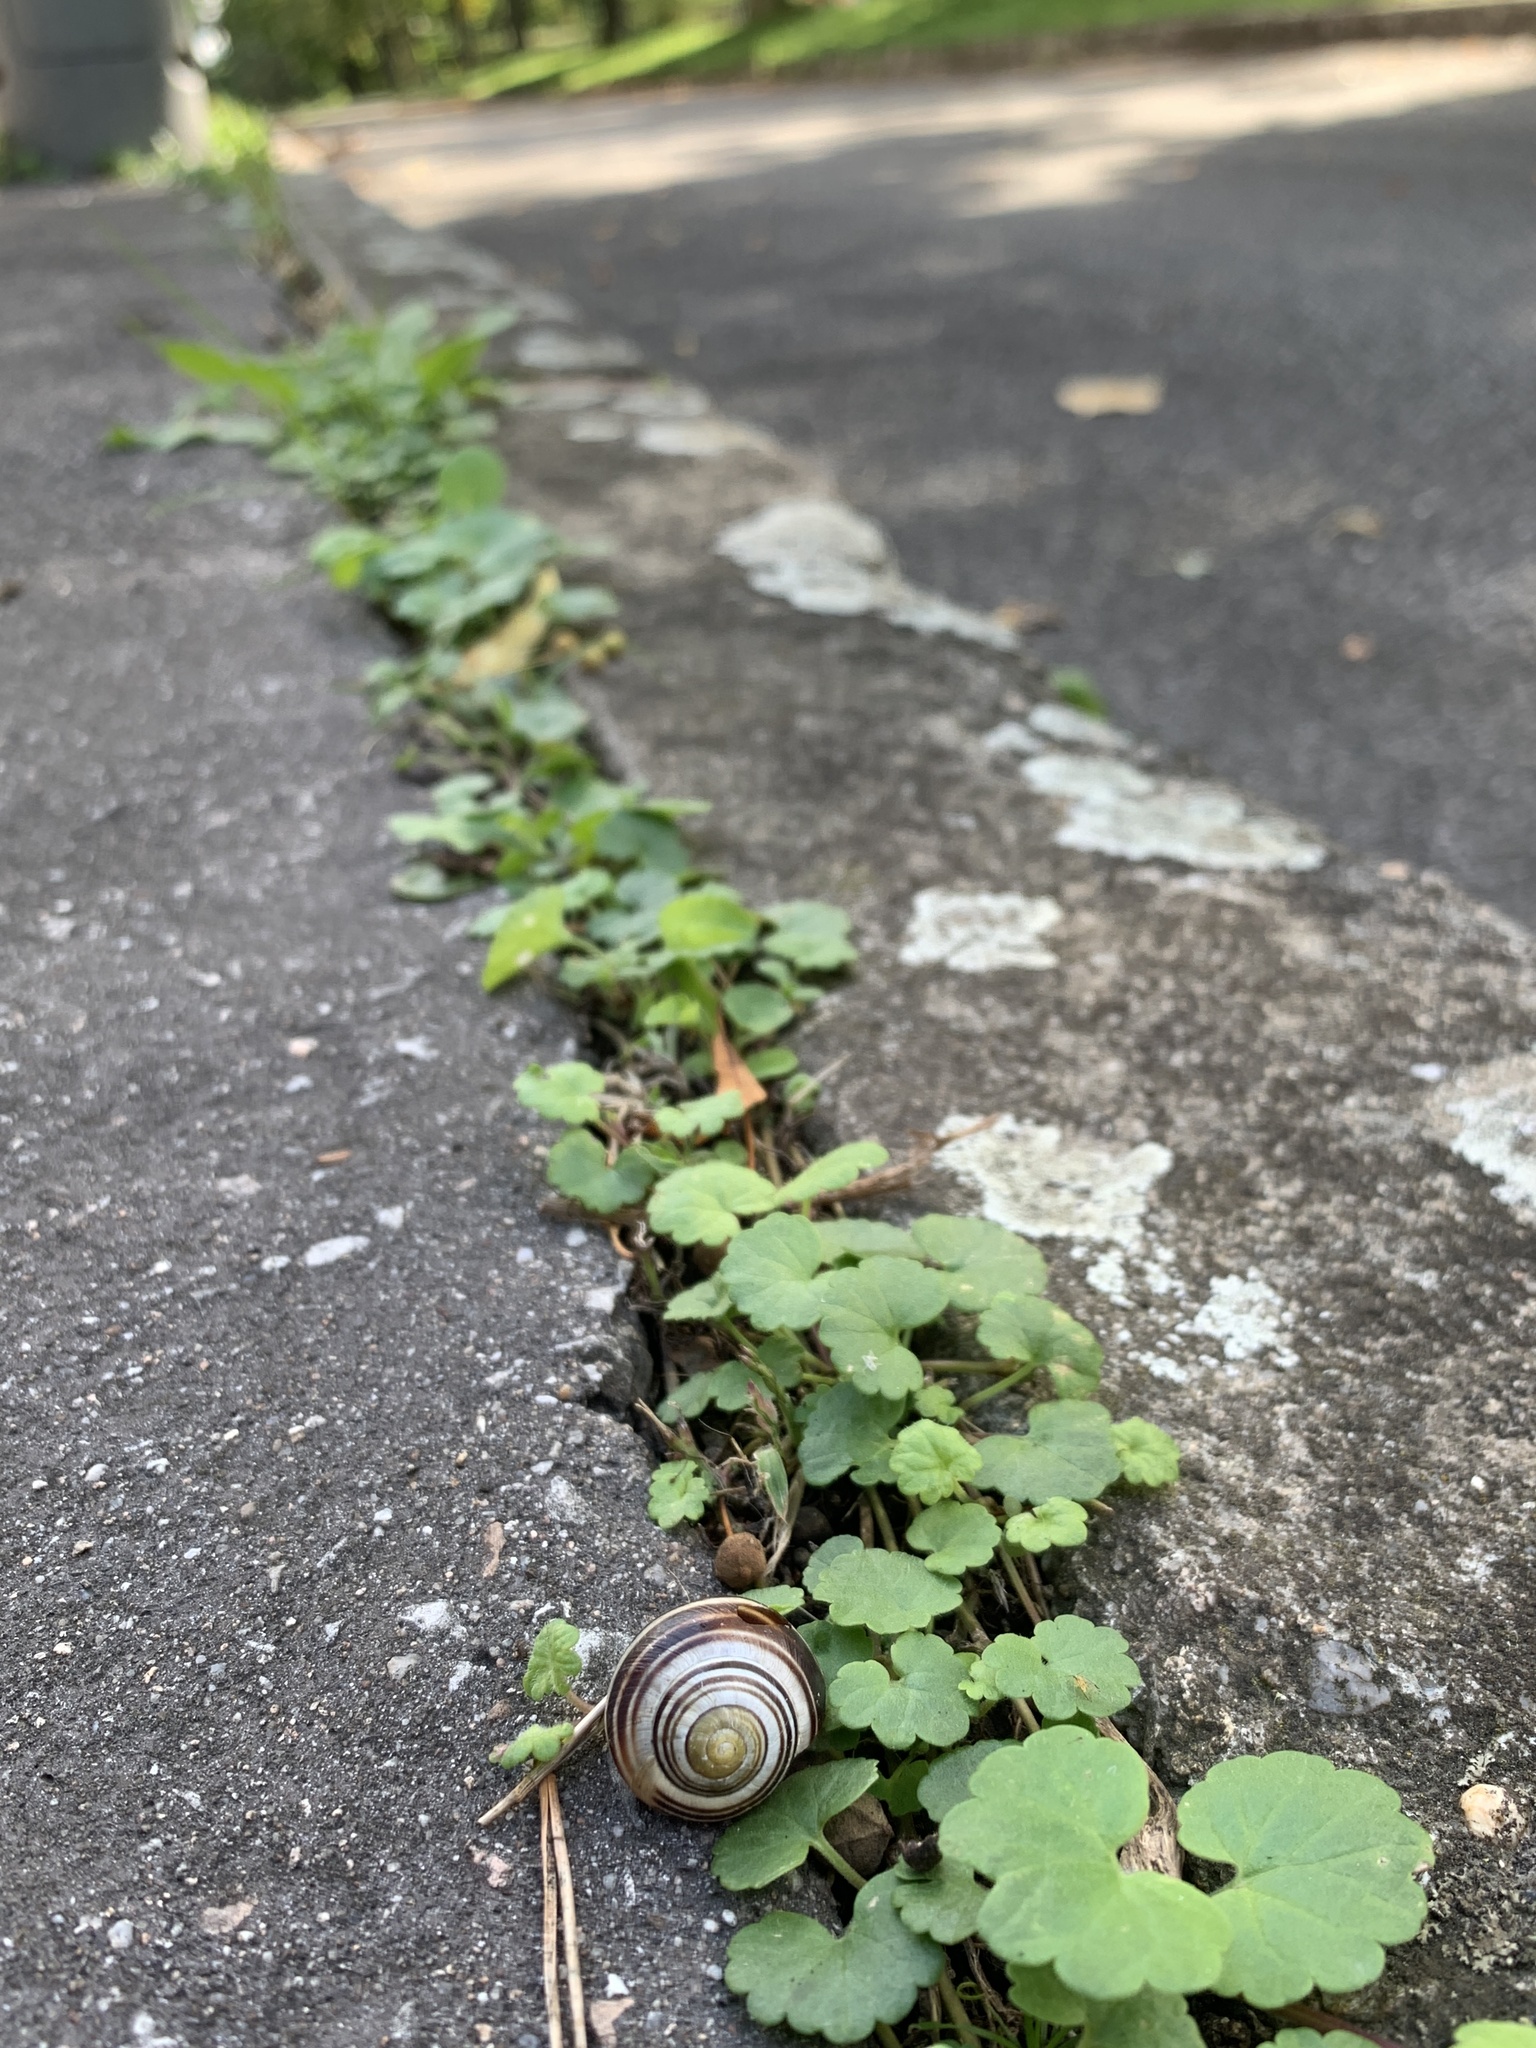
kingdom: Animalia
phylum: Mollusca
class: Gastropoda
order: Stylommatophora
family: Helicidae
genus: Cepaea
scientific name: Cepaea
